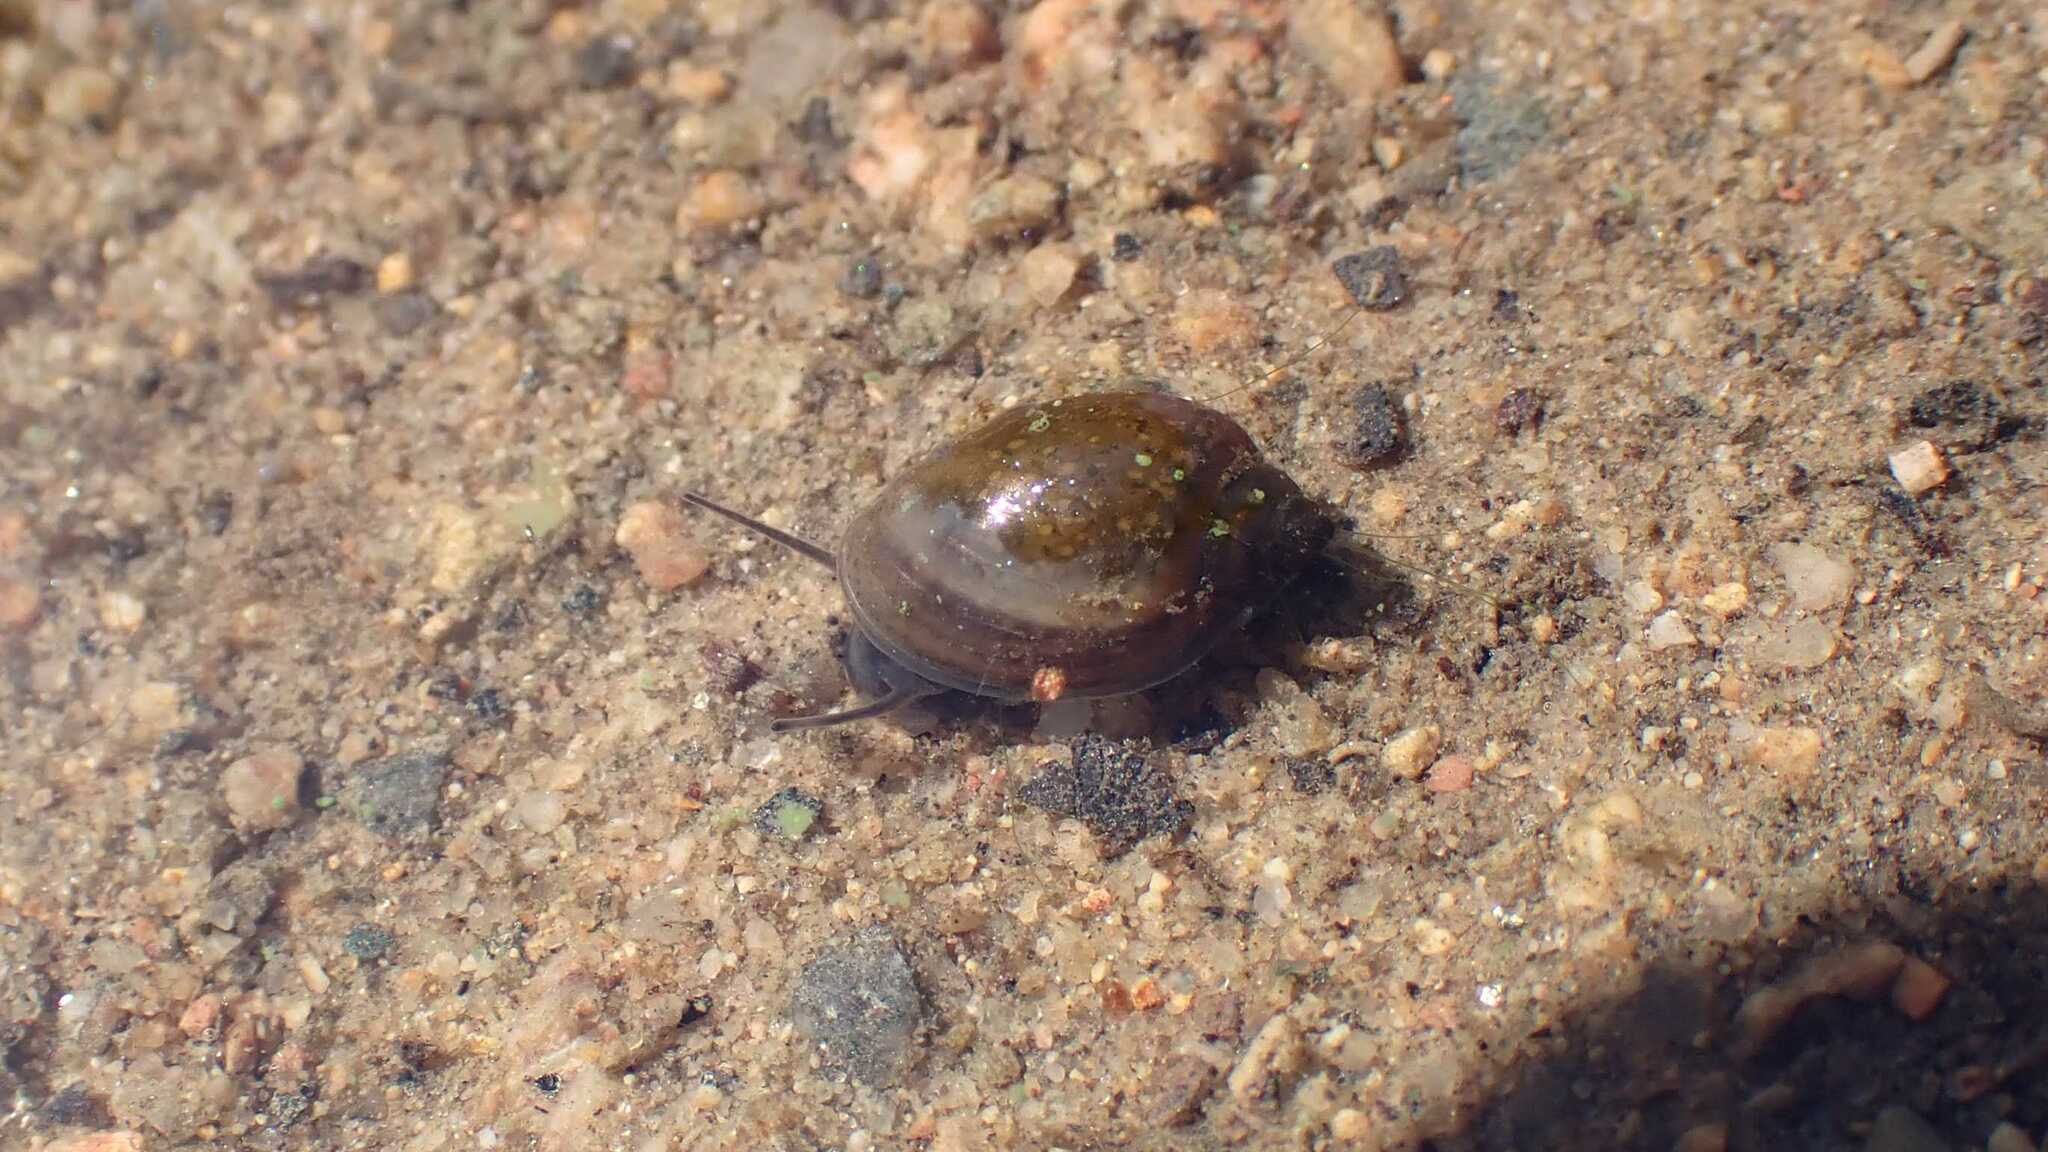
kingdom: Animalia
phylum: Mollusca
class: Gastropoda
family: Physidae
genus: Physella
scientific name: Physella acuta
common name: European physa
